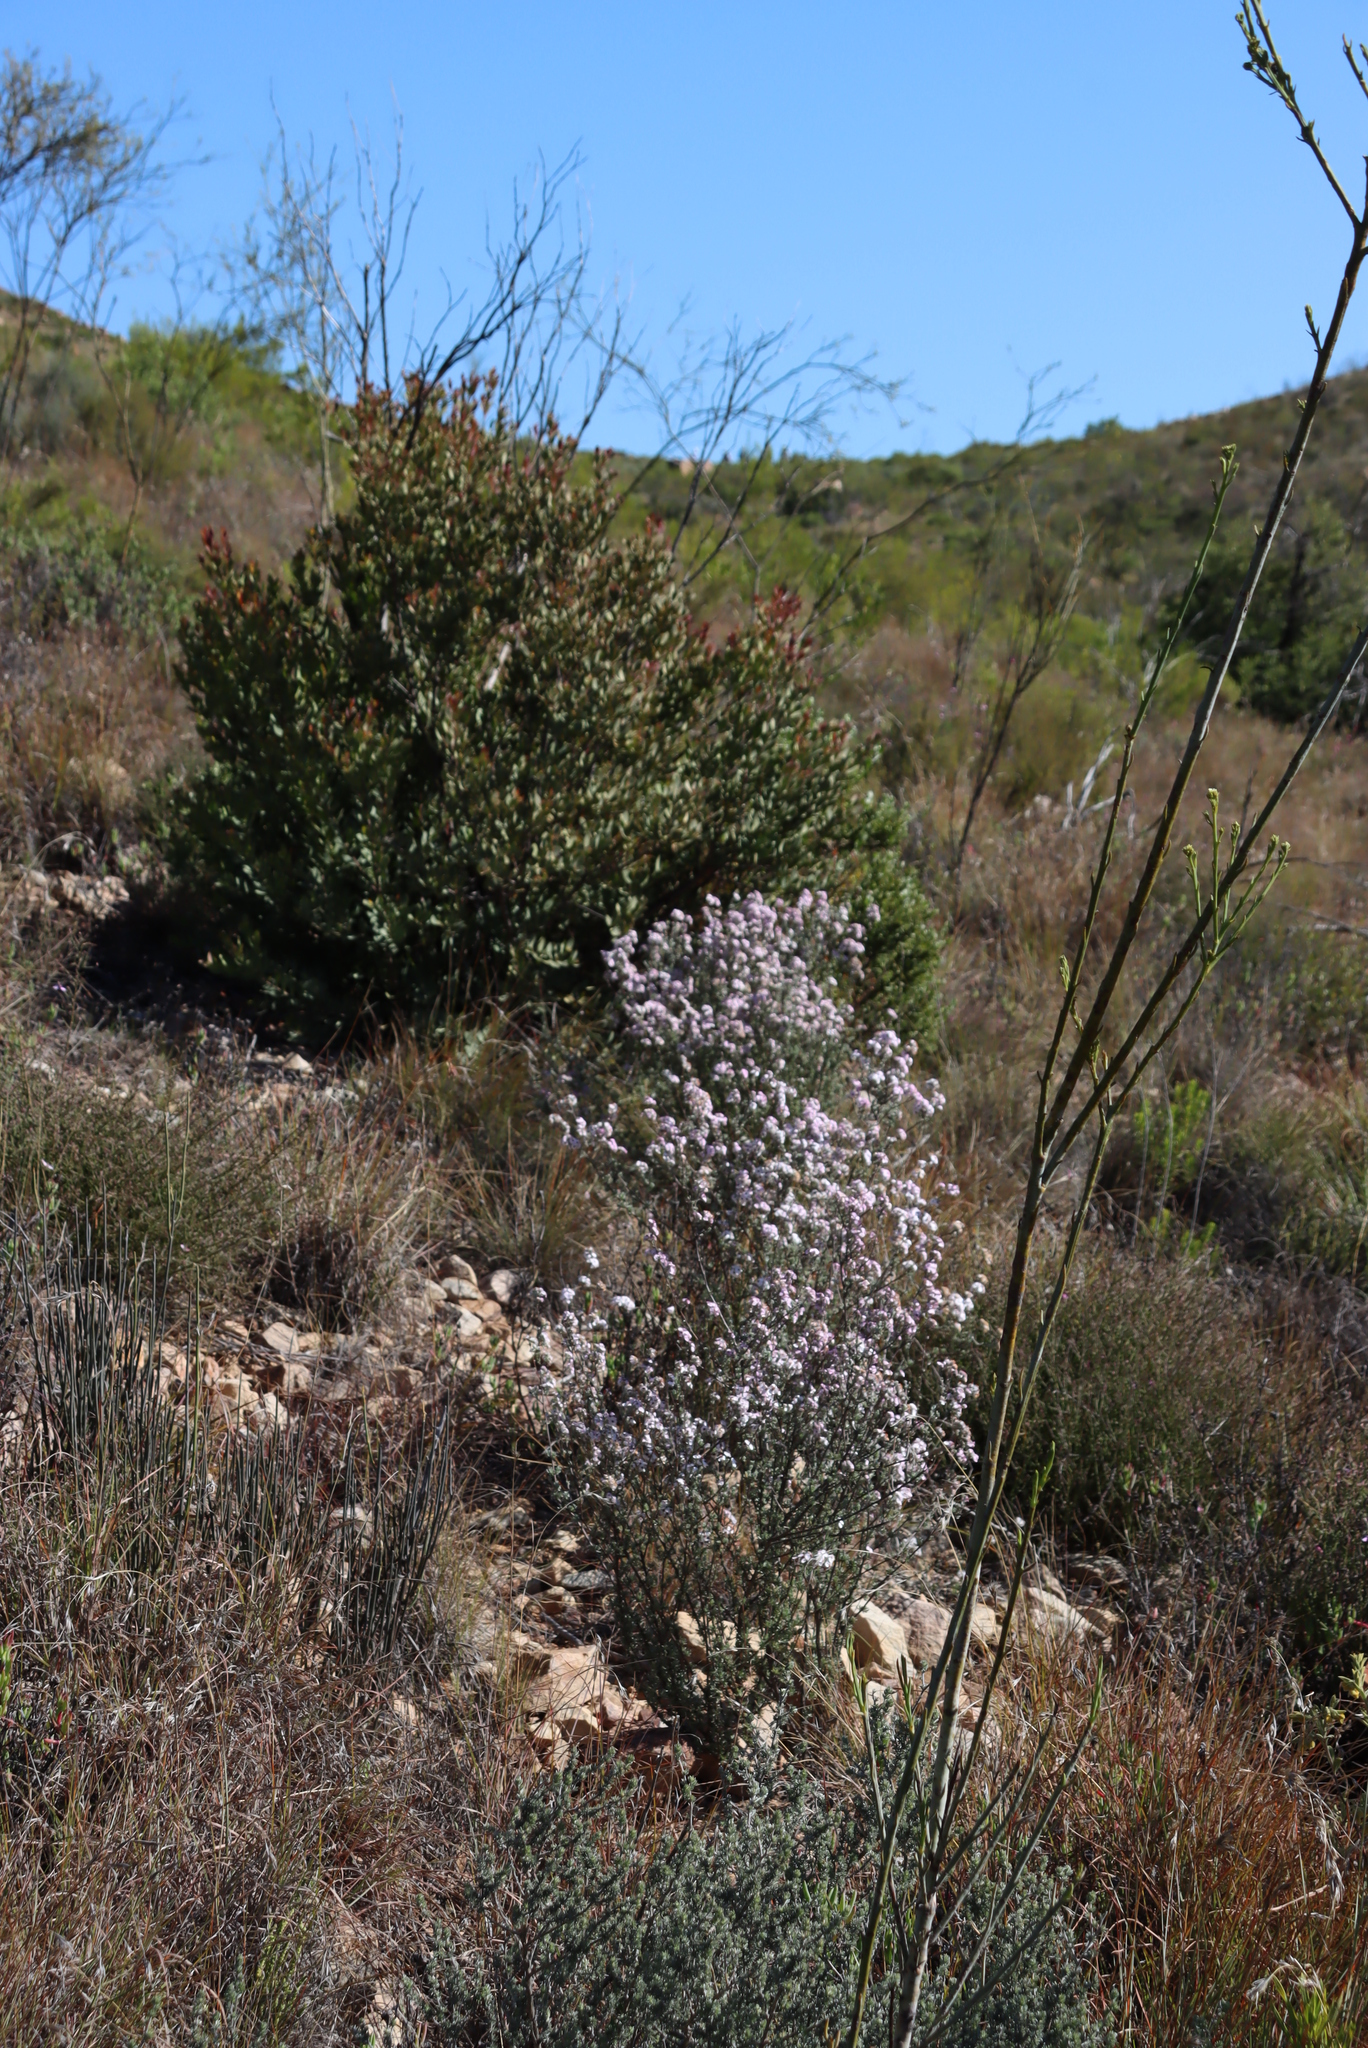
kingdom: Plantae
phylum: Tracheophyta
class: Magnoliopsida
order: Santalales
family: Thesiaceae
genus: Thesium
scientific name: Thesium strictum
